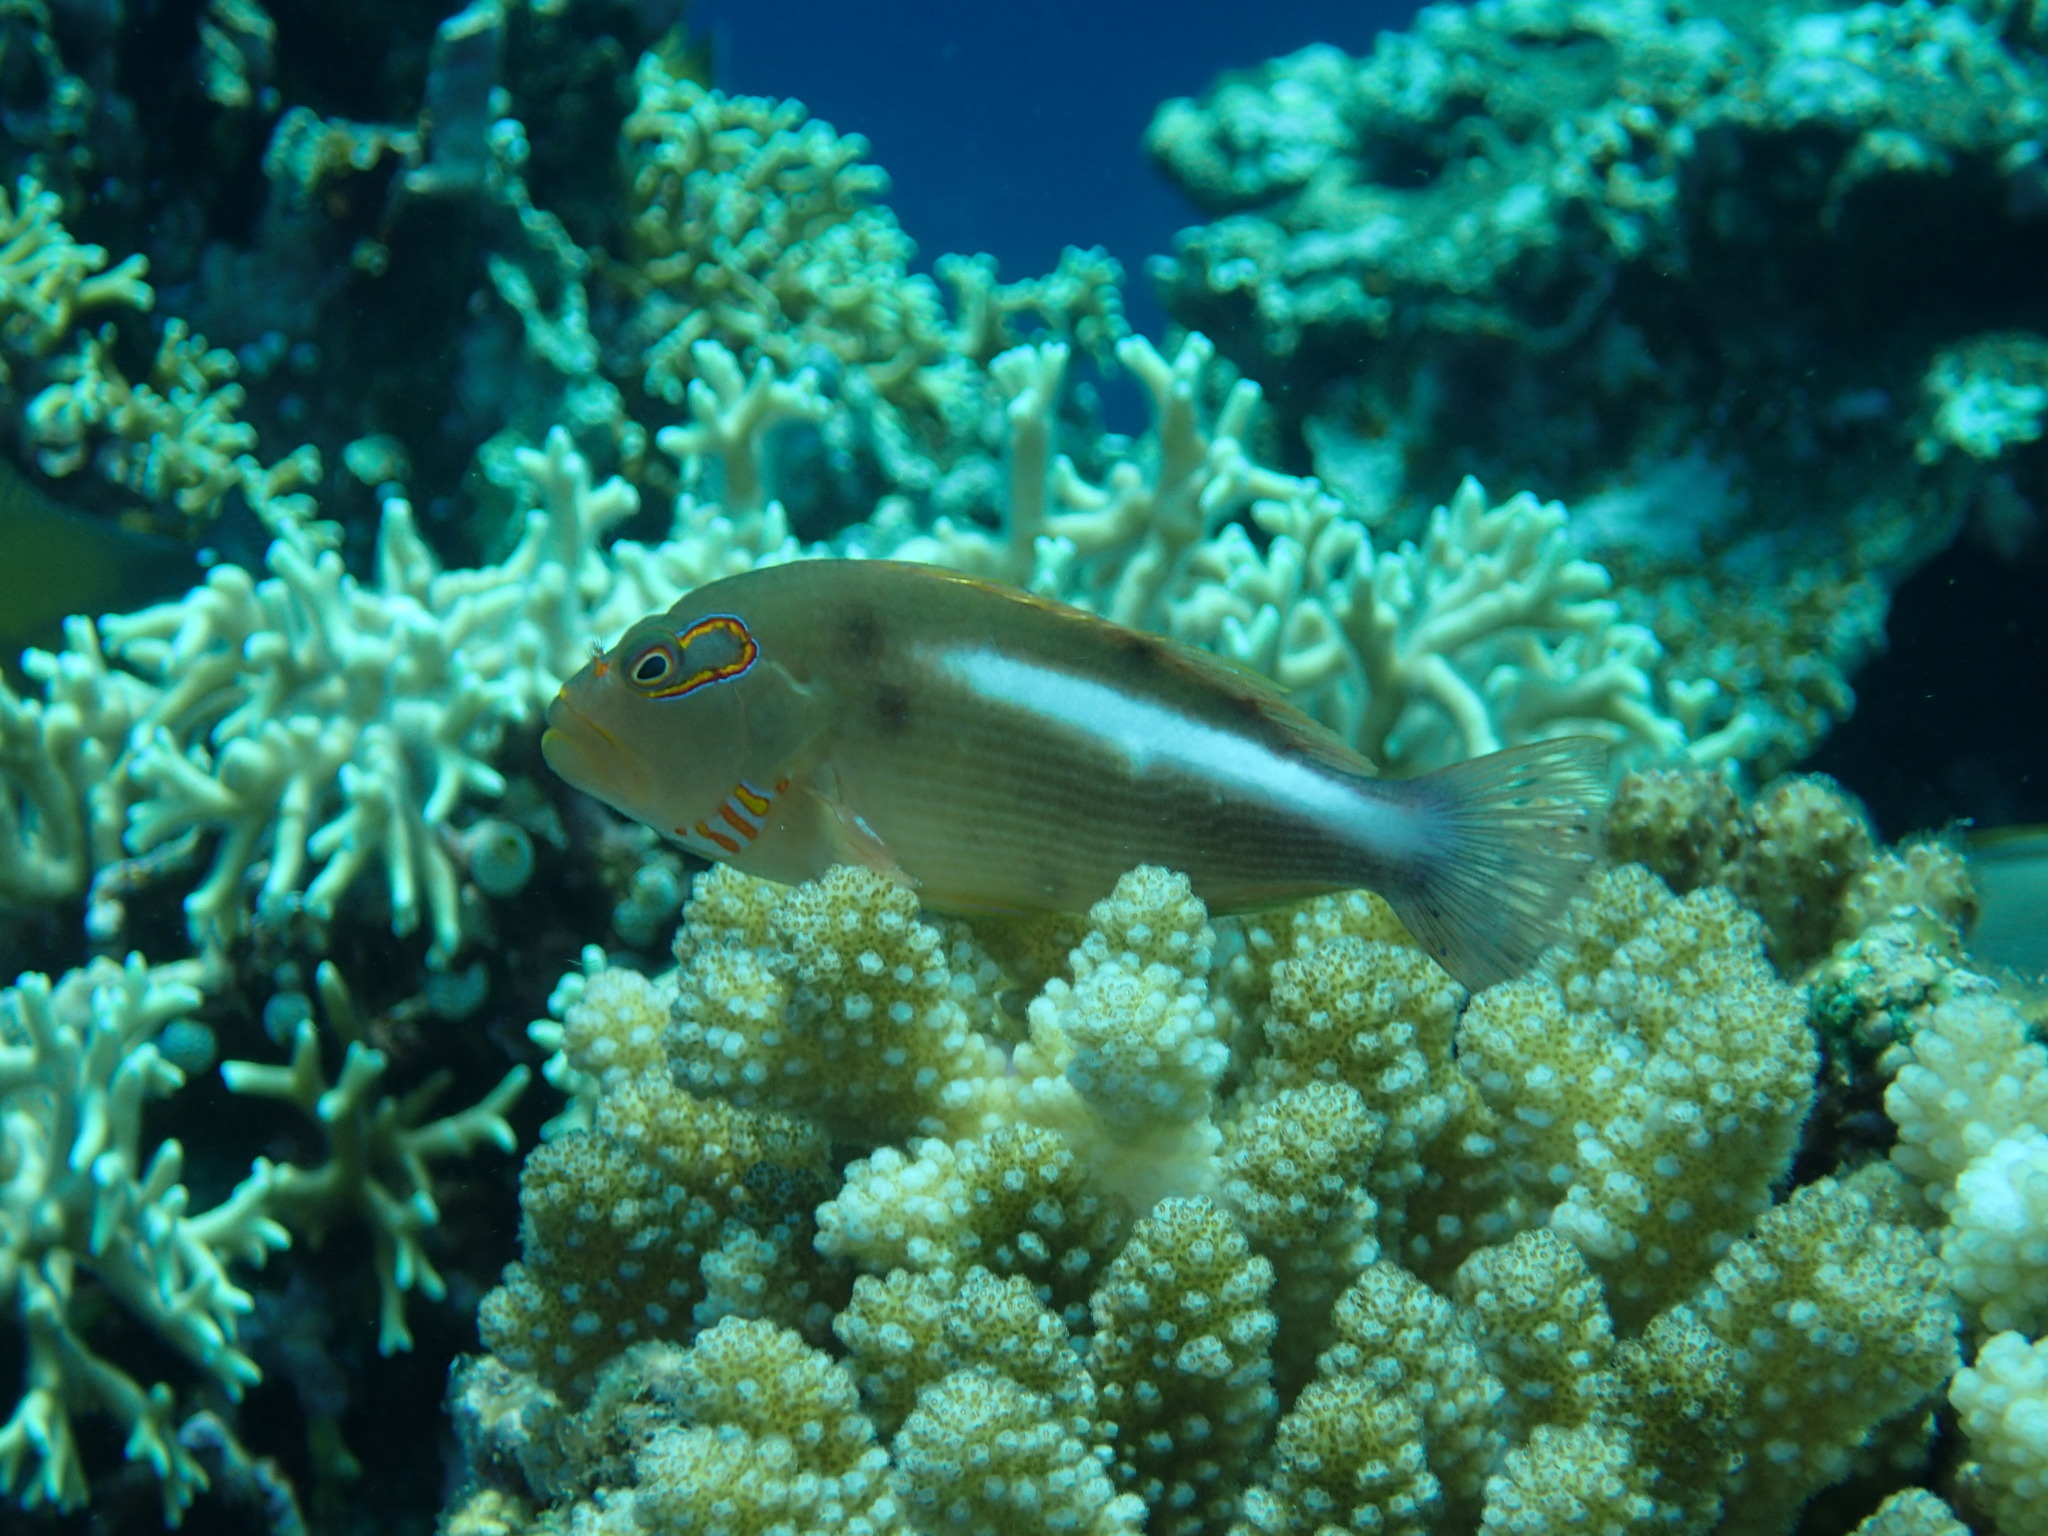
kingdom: Animalia
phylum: Chordata
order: Perciformes
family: Cirrhitidae
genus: Paracirrhites
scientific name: Paracirrhites arcatus
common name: Arc-eye hawkfish
